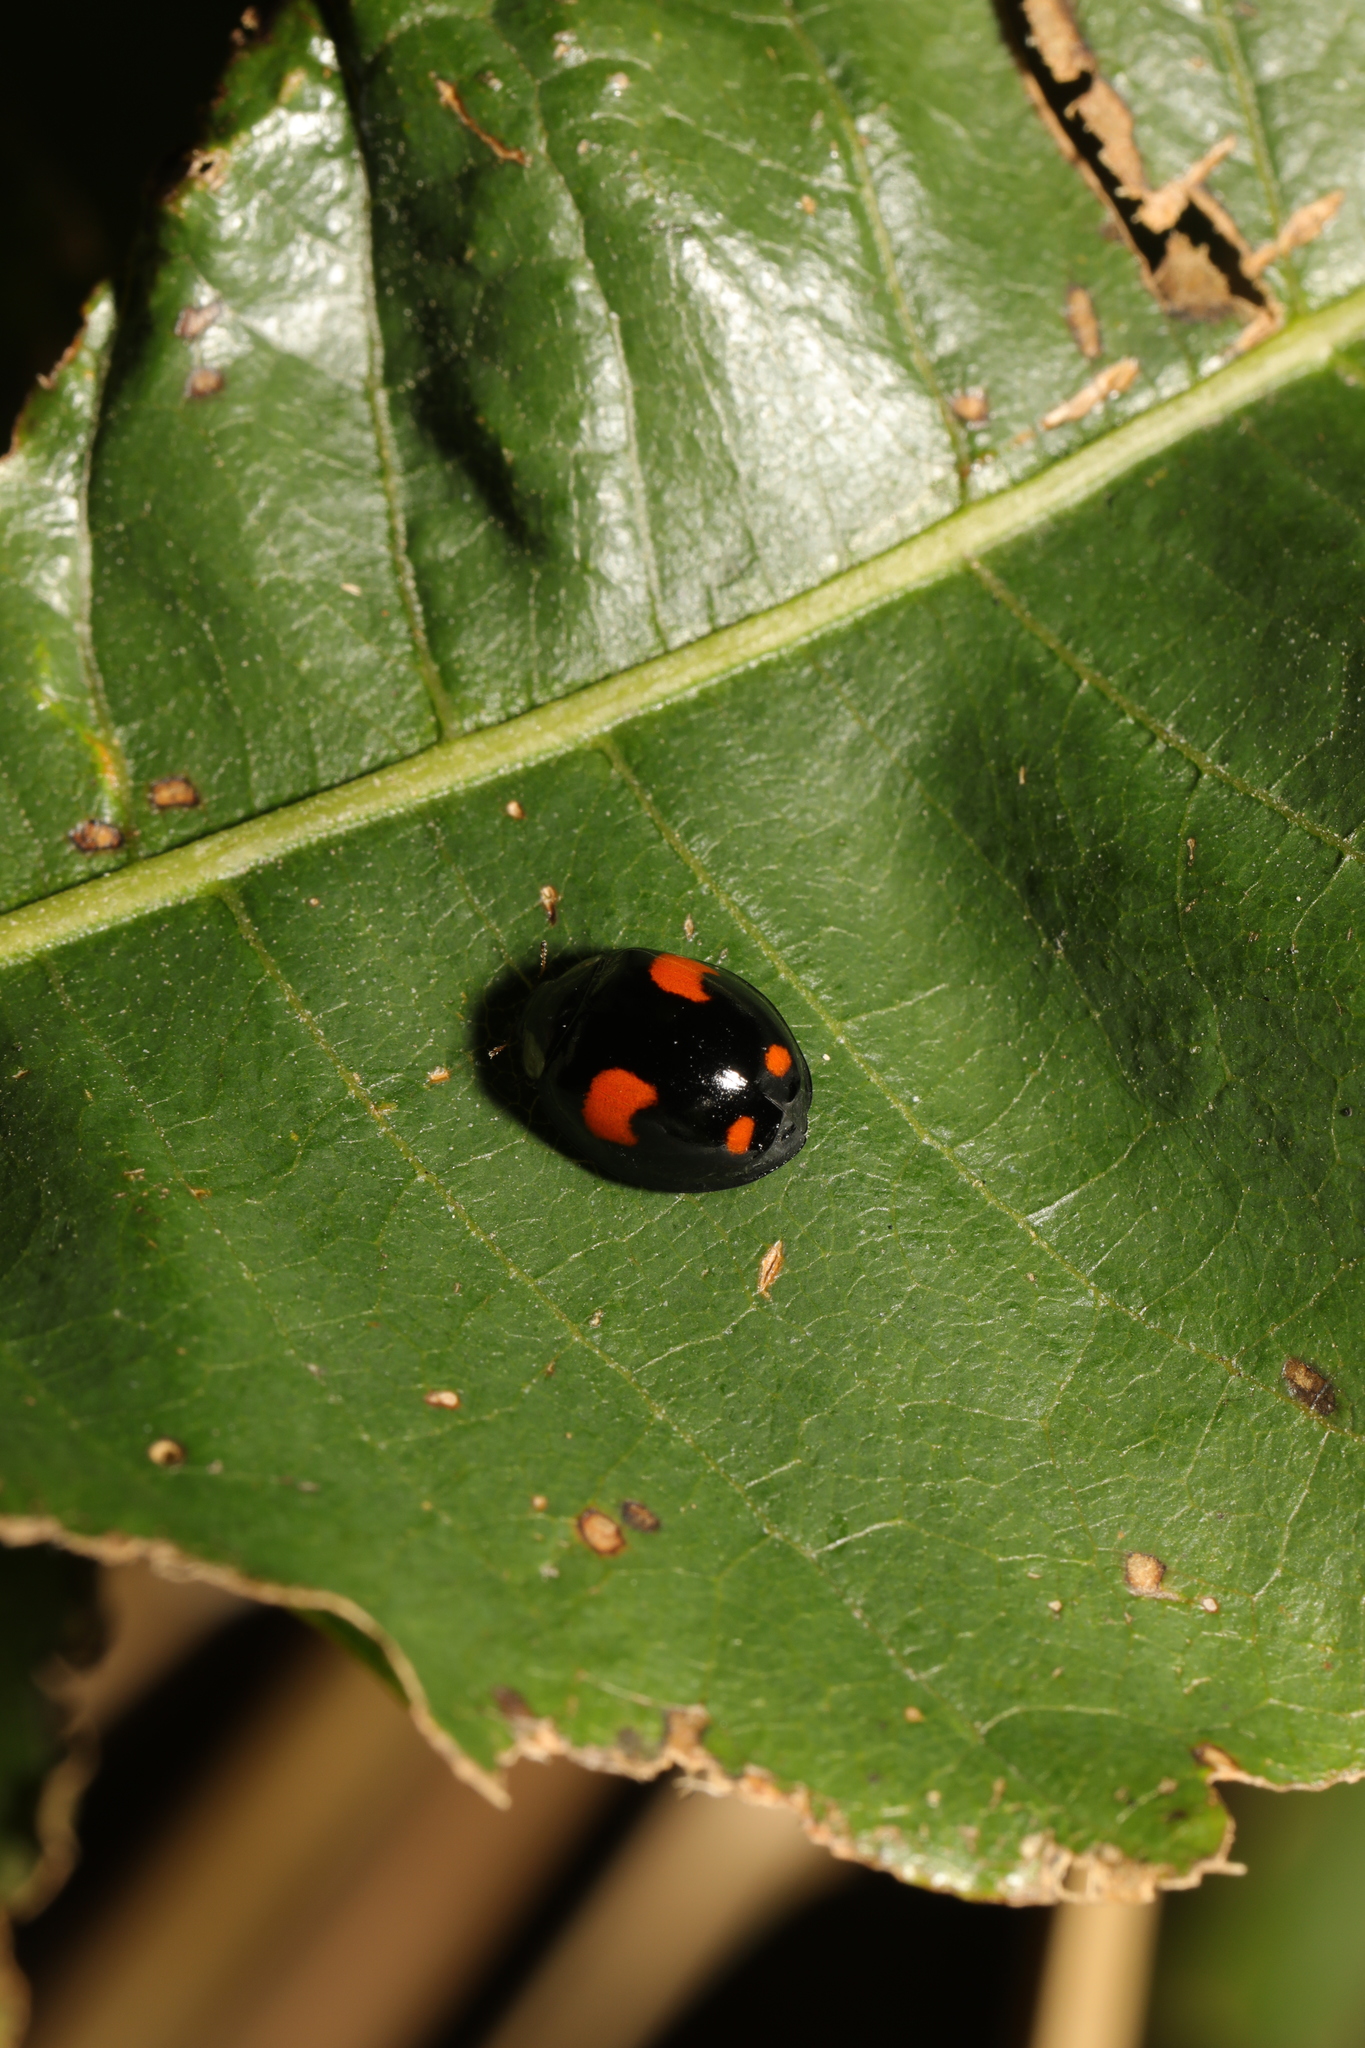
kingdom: Animalia
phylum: Arthropoda
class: Insecta
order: Coleoptera
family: Coccinellidae
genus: Harmonia
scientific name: Harmonia axyridis
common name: Harlequin ladybird
